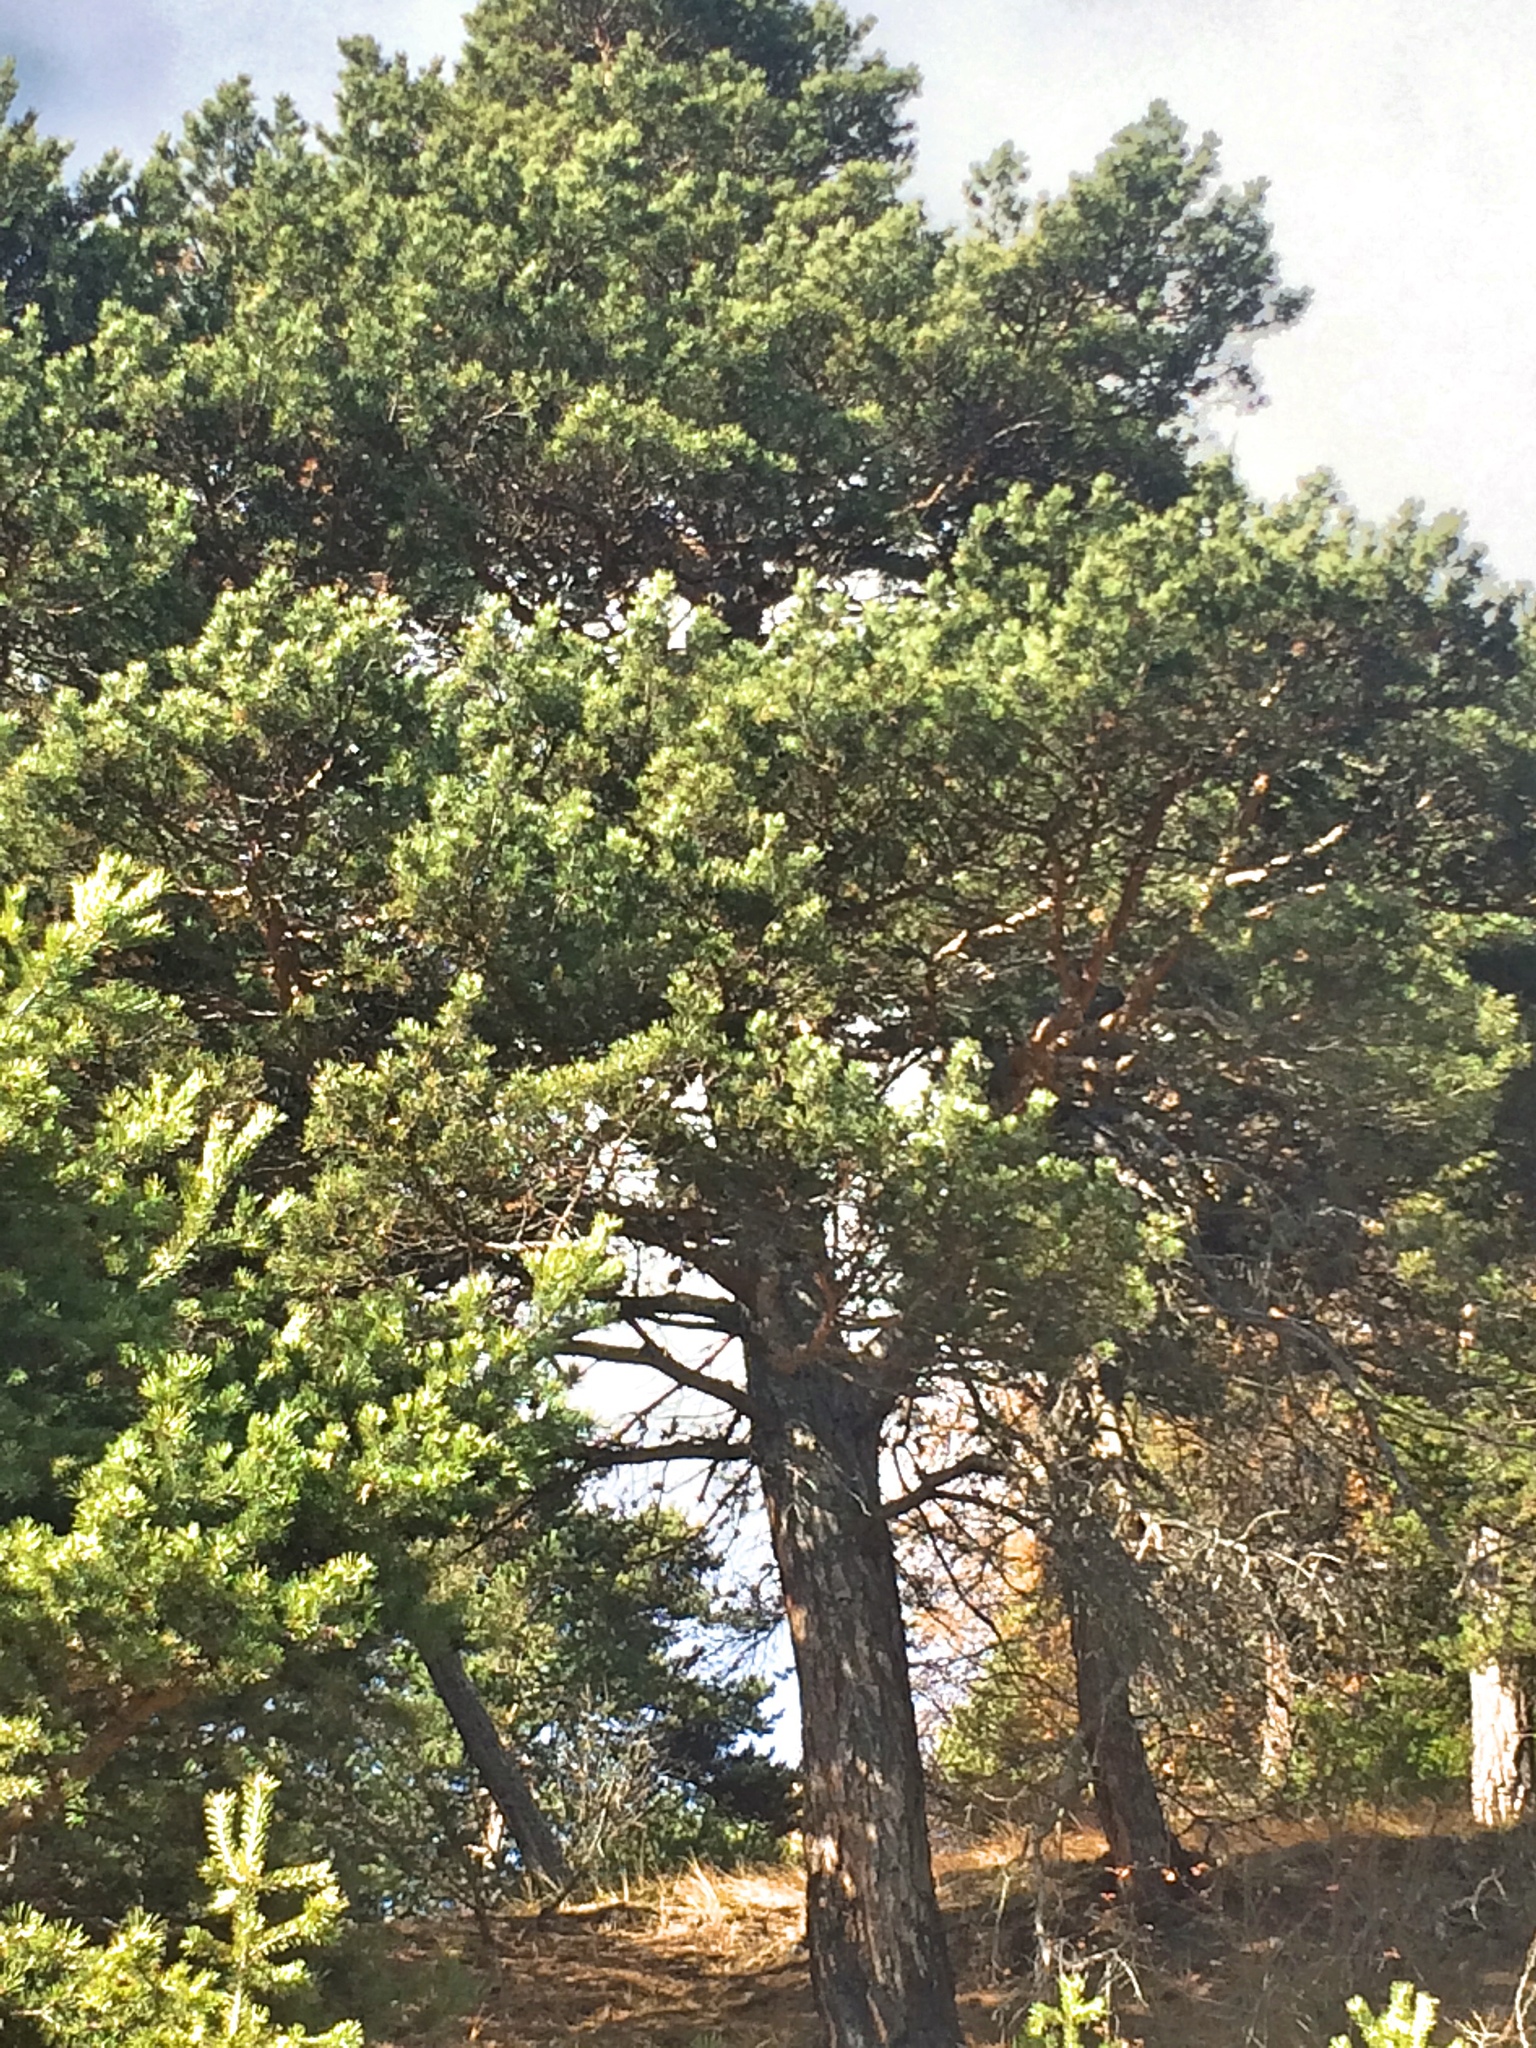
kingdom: Plantae
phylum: Tracheophyta
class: Pinopsida
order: Pinales
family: Pinaceae
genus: Pinus
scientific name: Pinus sylvestris
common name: Scots pine
